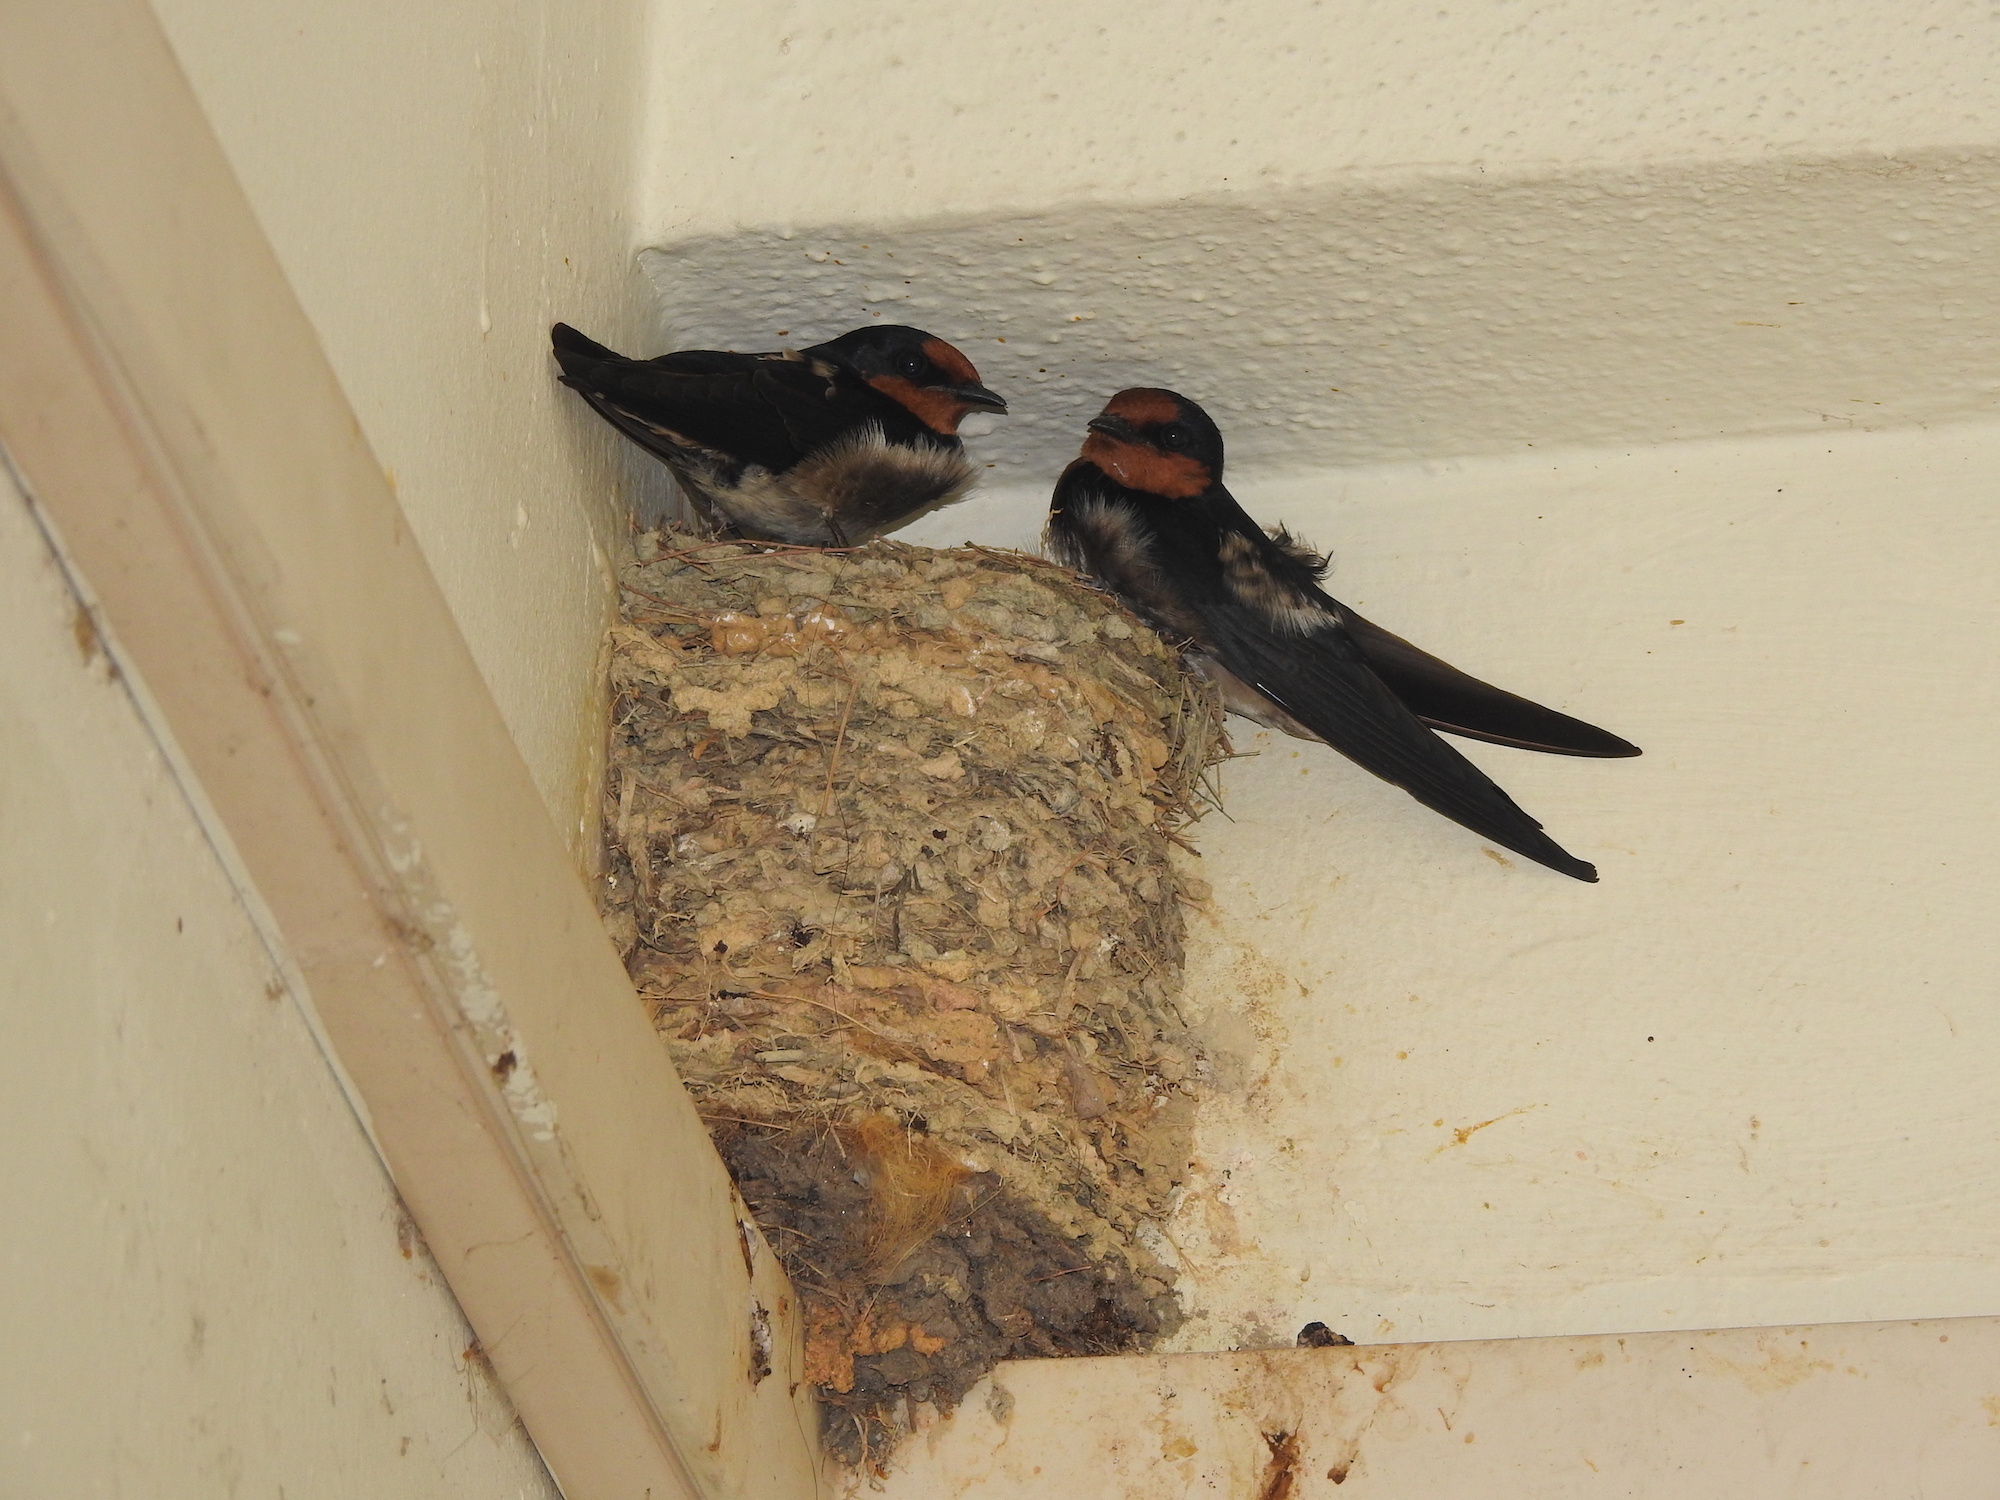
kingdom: Animalia
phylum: Chordata
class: Aves
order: Passeriformes
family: Hirundinidae
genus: Hirundo
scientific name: Hirundo tahitica
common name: Pacific swallow
